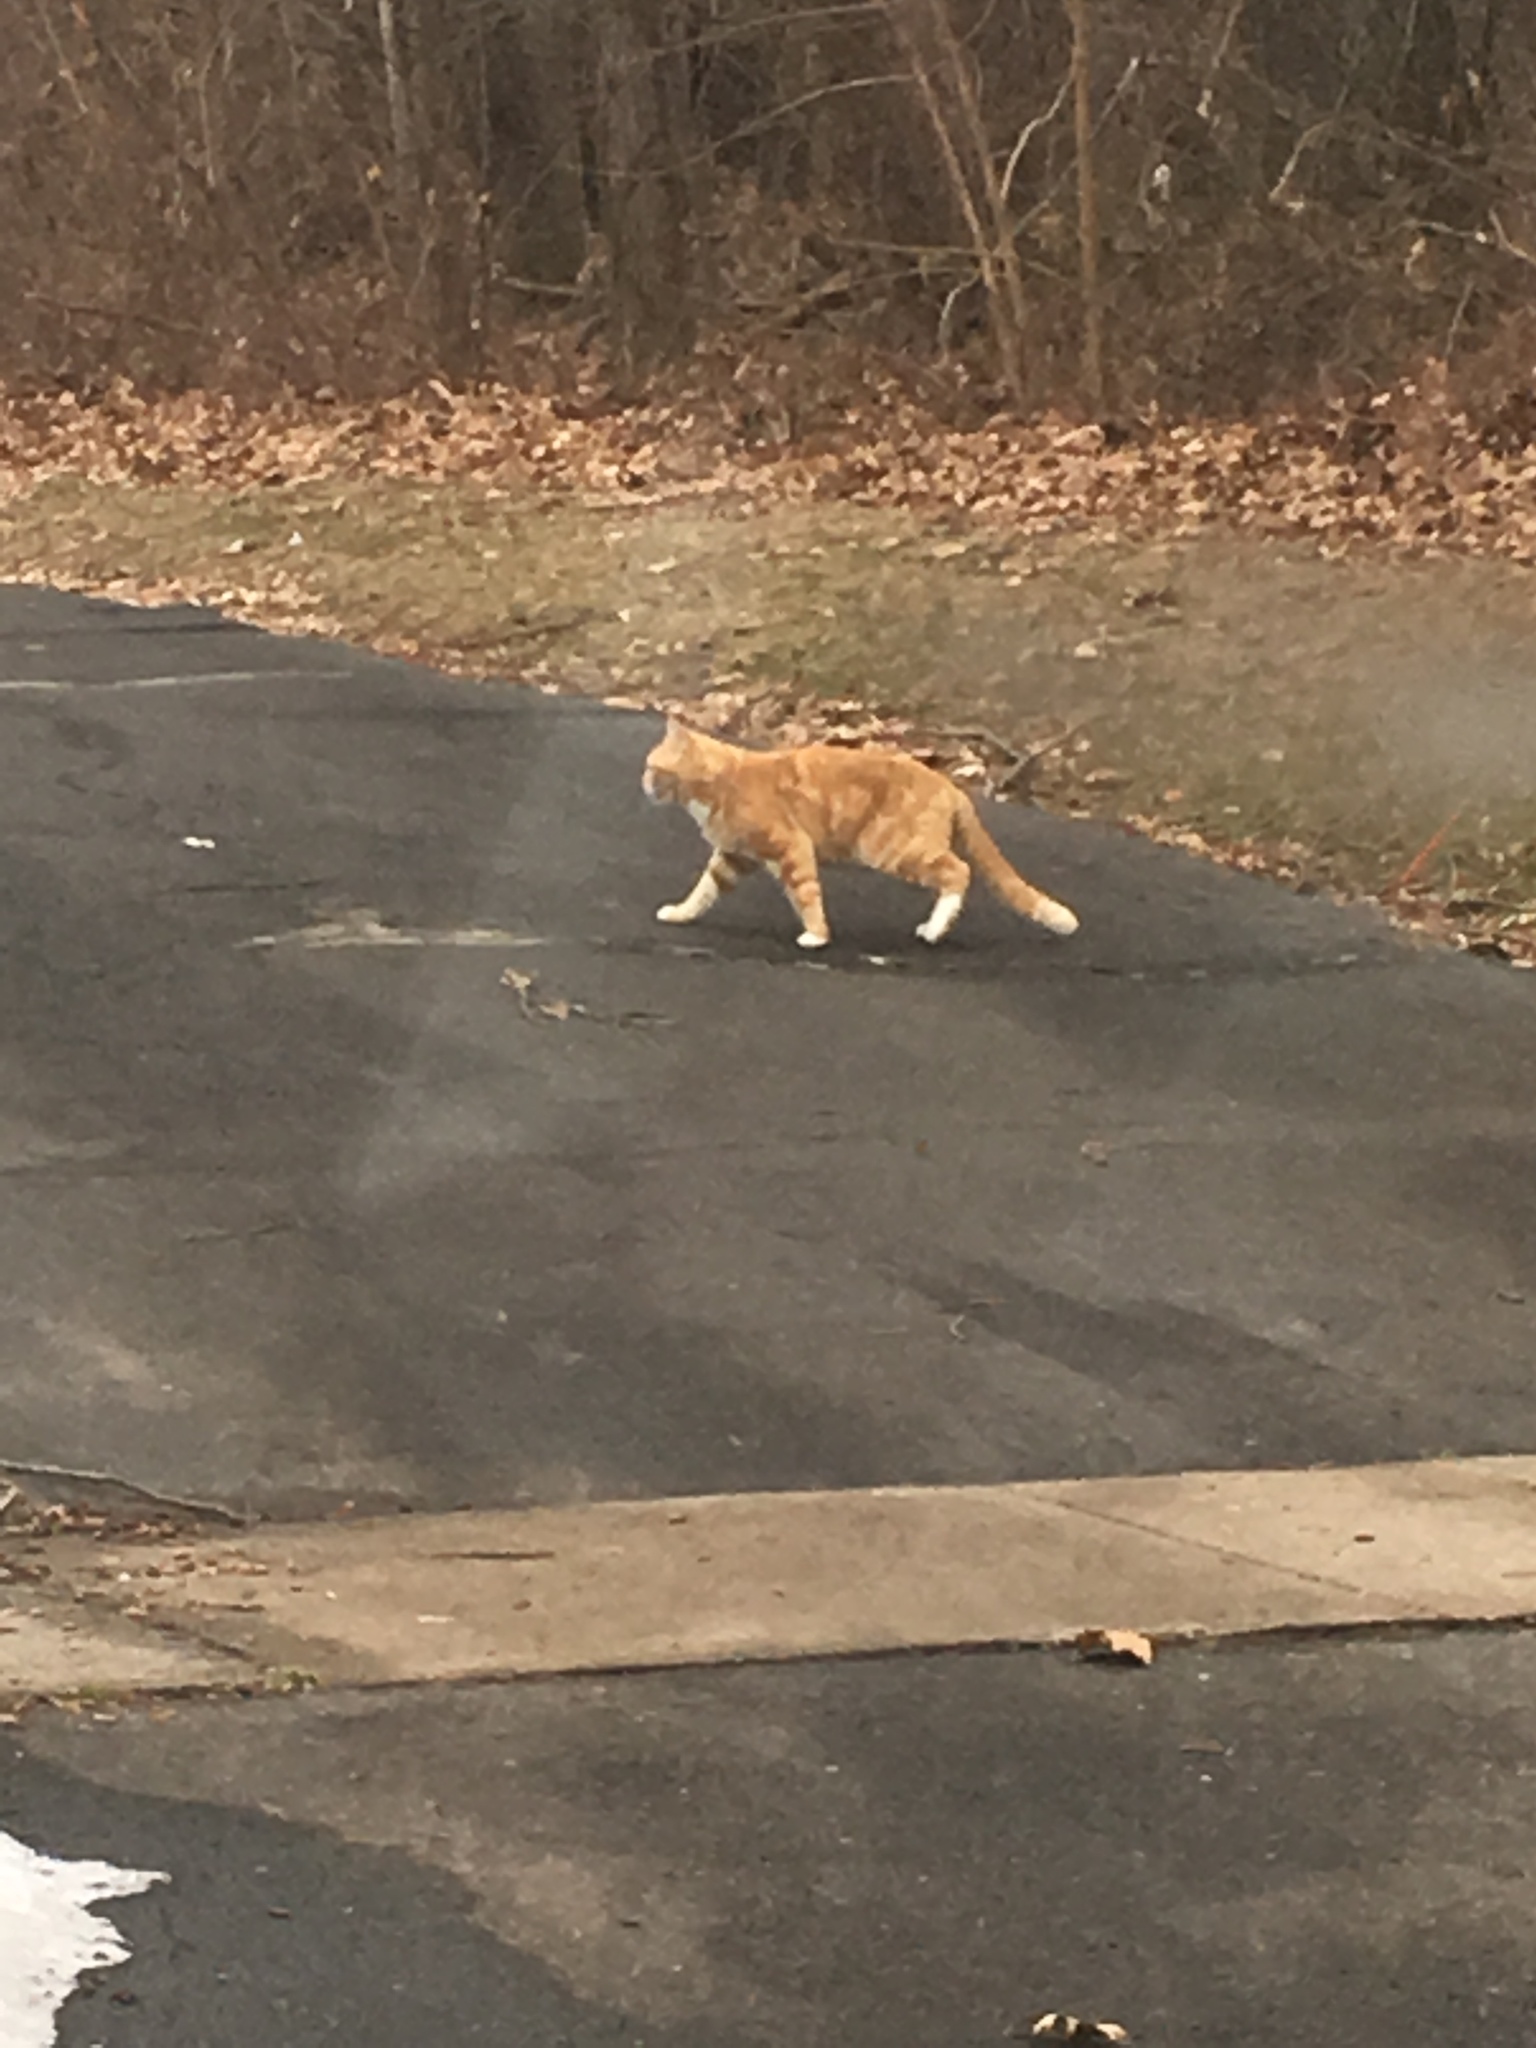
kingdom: Animalia
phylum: Chordata
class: Mammalia
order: Carnivora
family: Felidae
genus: Felis
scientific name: Felis catus
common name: Domestic cat
